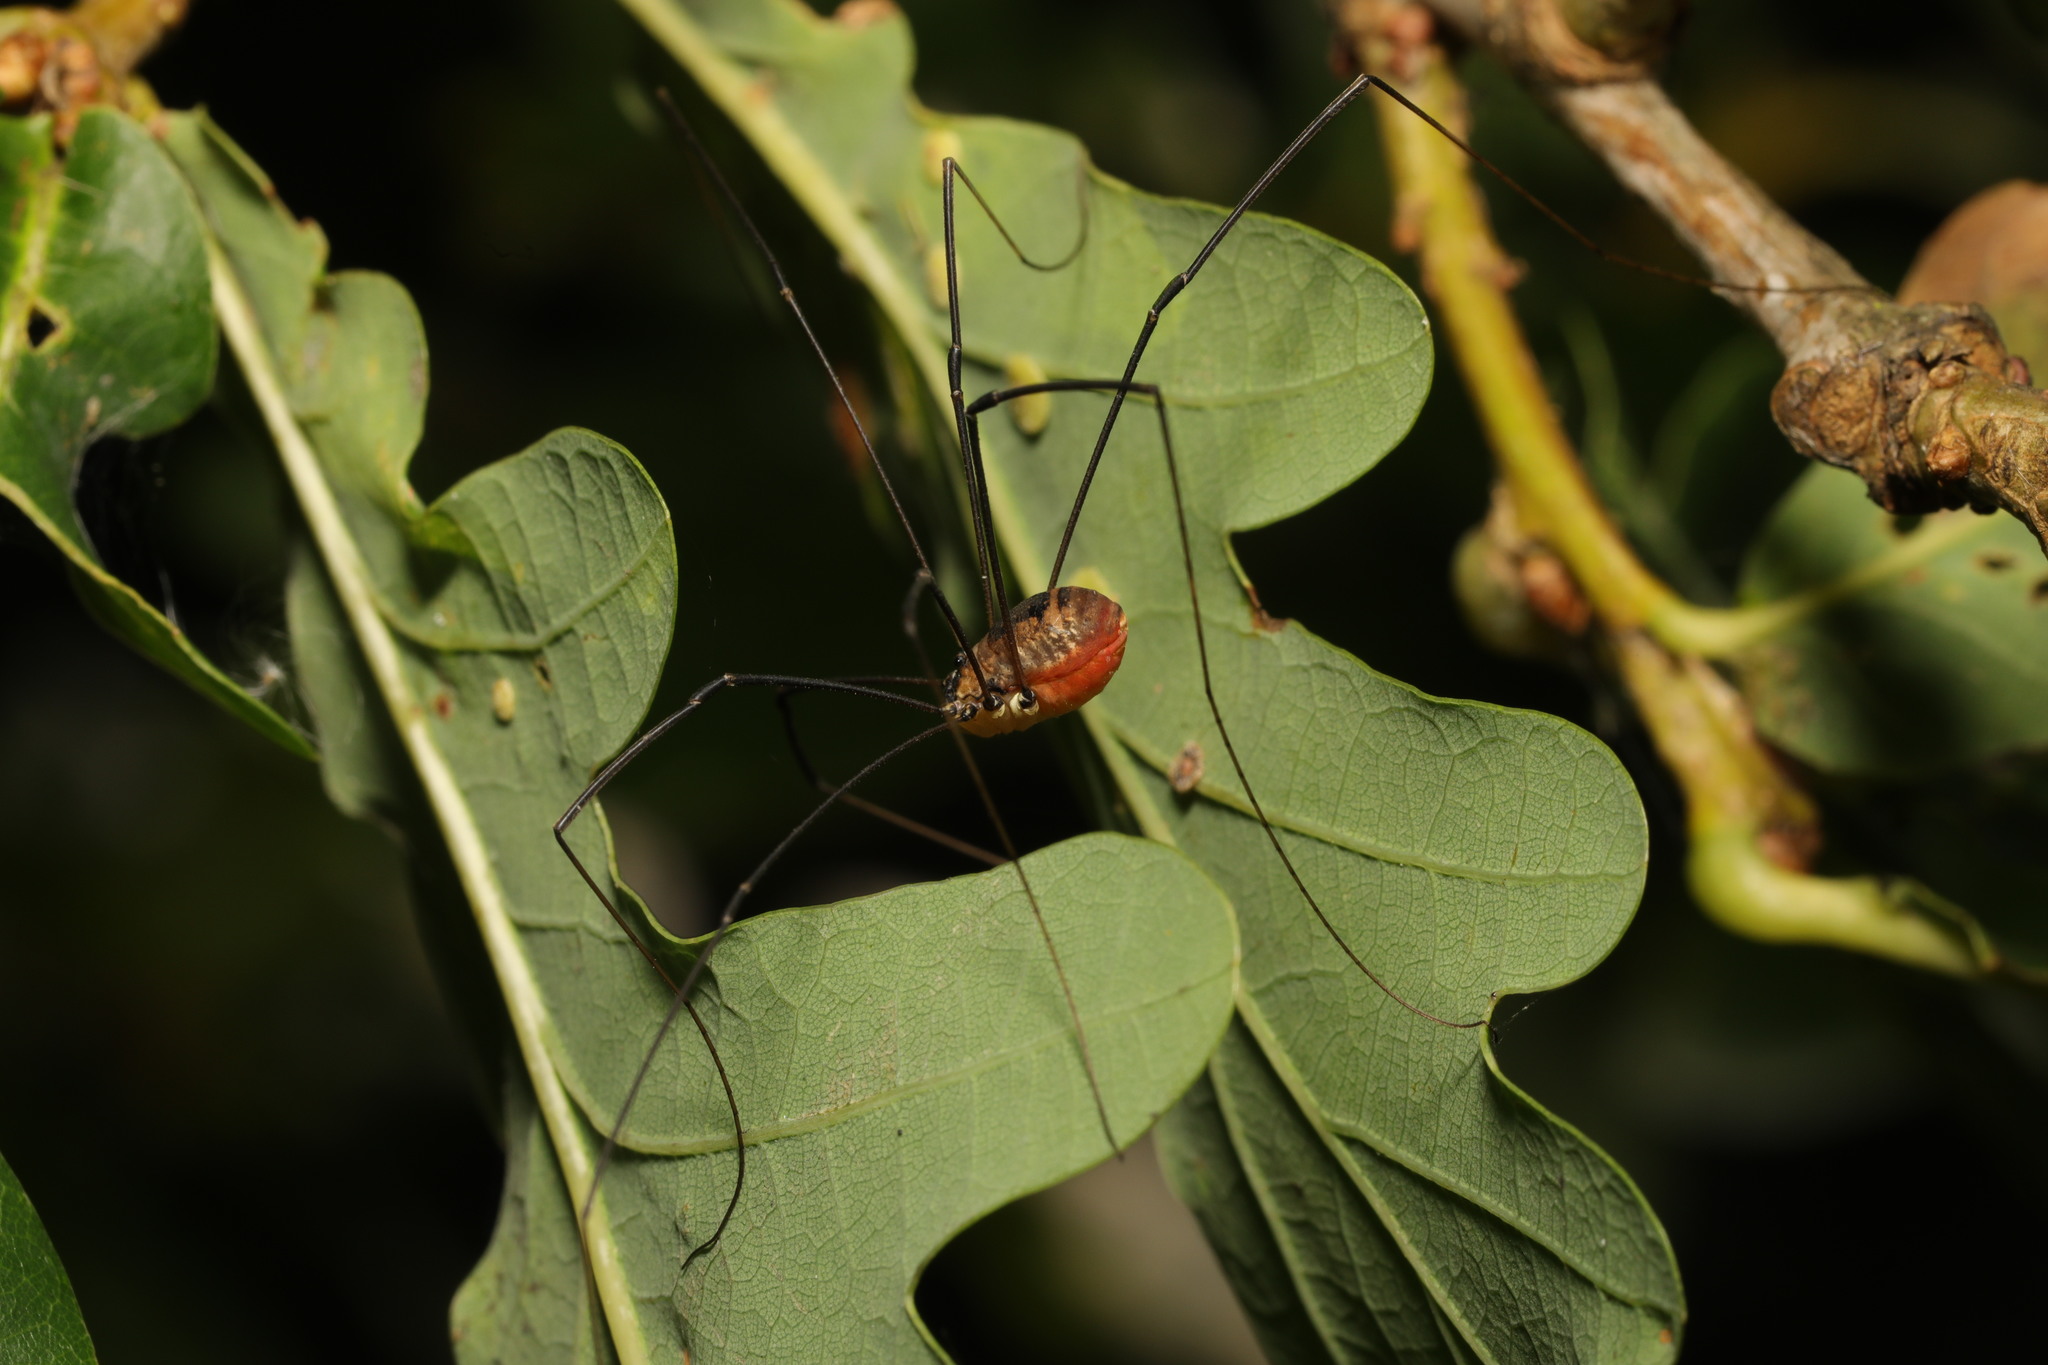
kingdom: Animalia
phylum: Arthropoda
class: Arachnida
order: Opiliones
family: Sclerosomatidae
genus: Leiobunum
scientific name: Leiobunum rotundum
